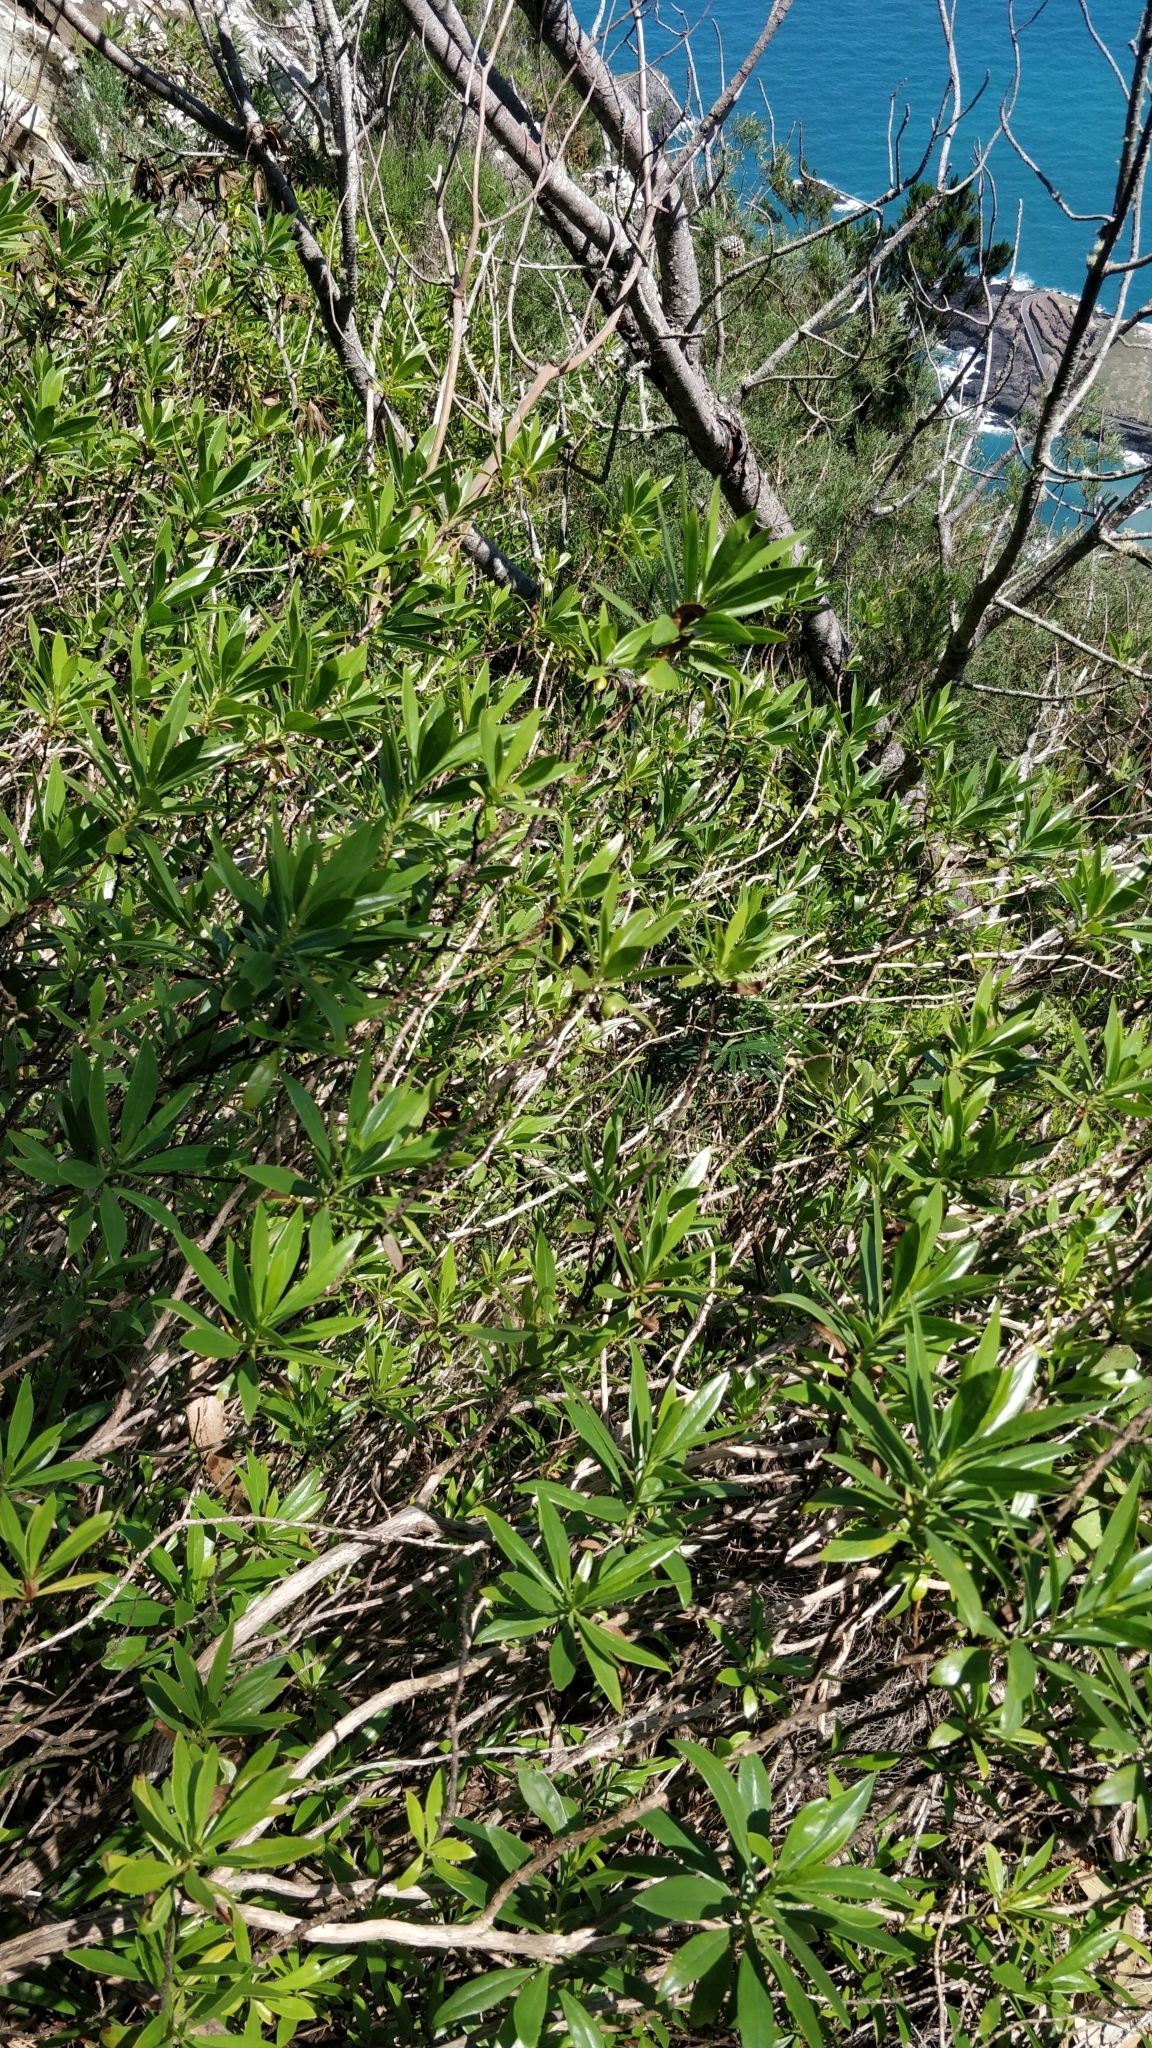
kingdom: Plantae
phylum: Tracheophyta
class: Magnoliopsida
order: Lamiales
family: Plantaginaceae
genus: Globularia
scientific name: Globularia salicina
